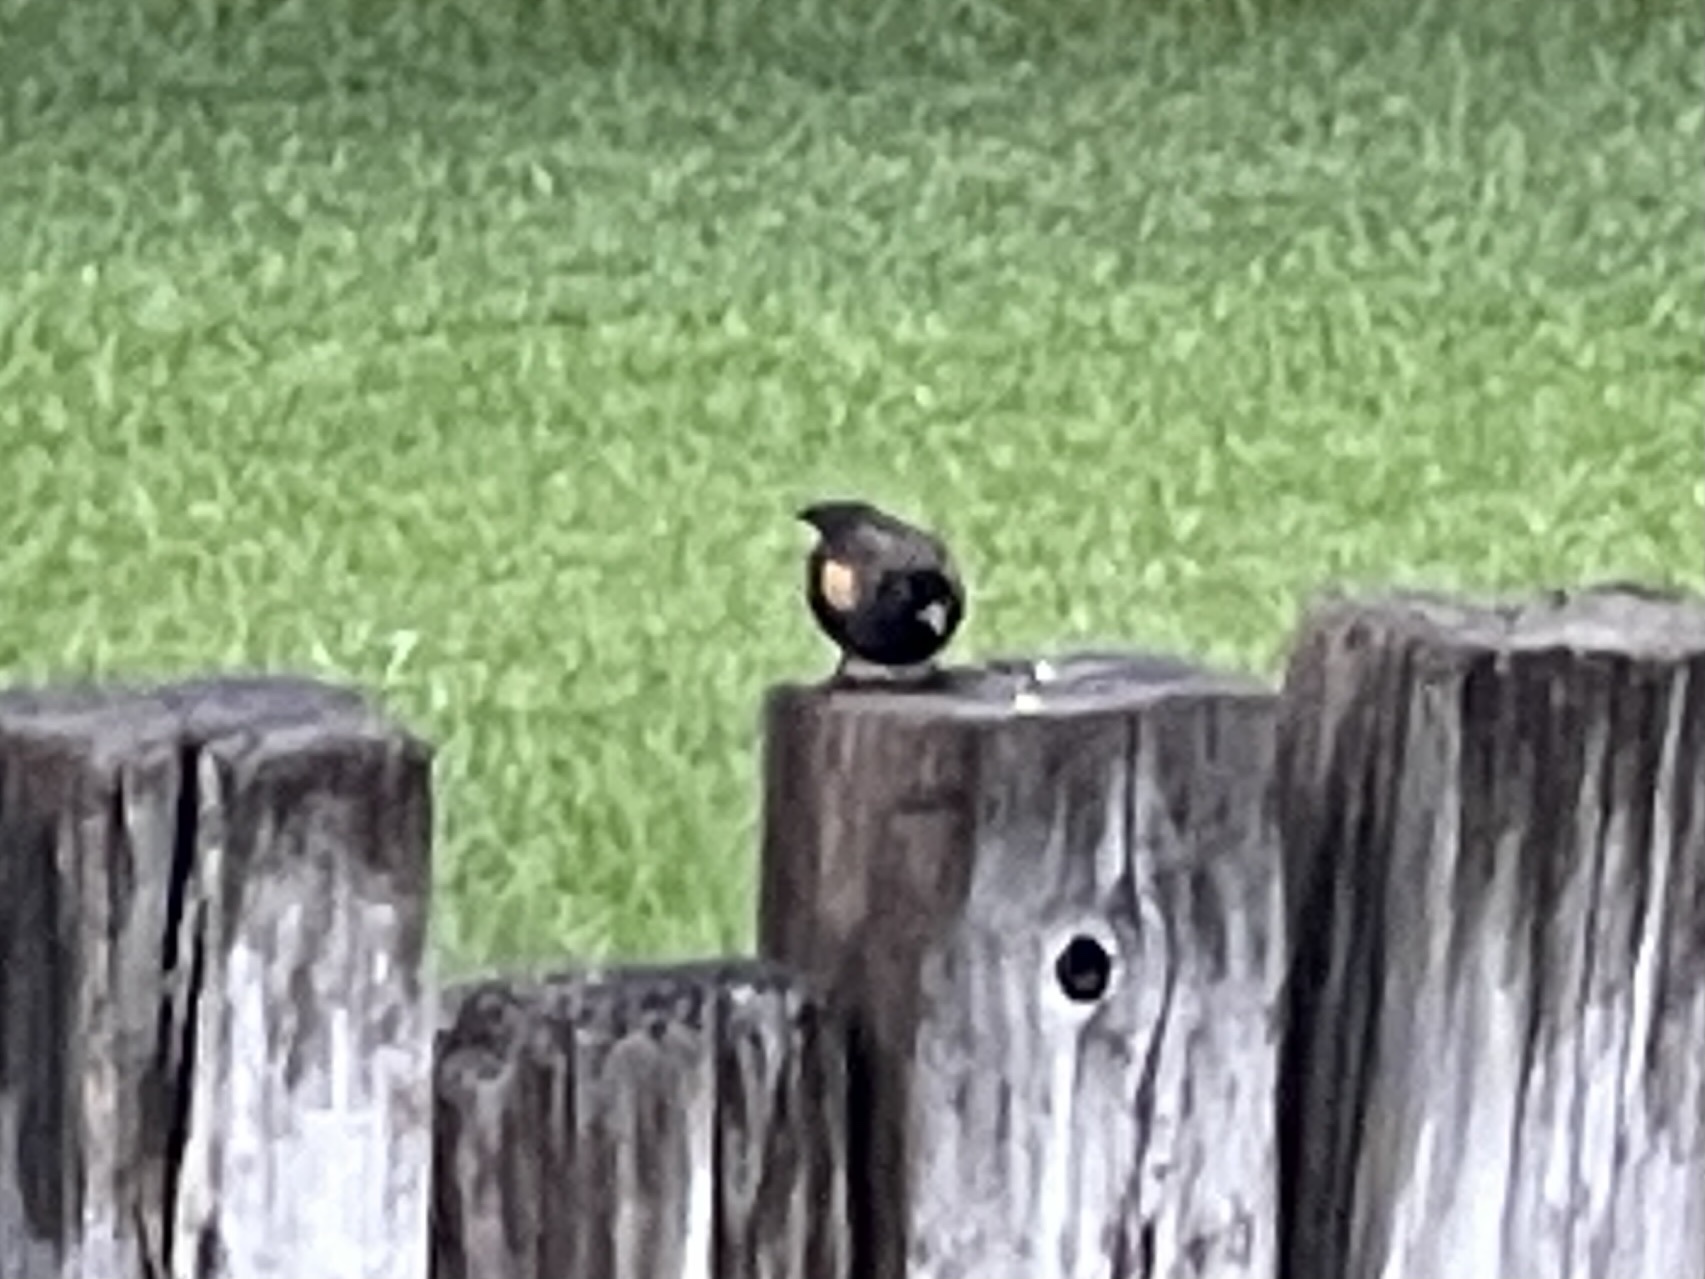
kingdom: Animalia
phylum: Chordata
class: Aves
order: Passeriformes
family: Icteridae
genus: Agelaius
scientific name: Agelaius phoeniceus
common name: Red-winged blackbird
